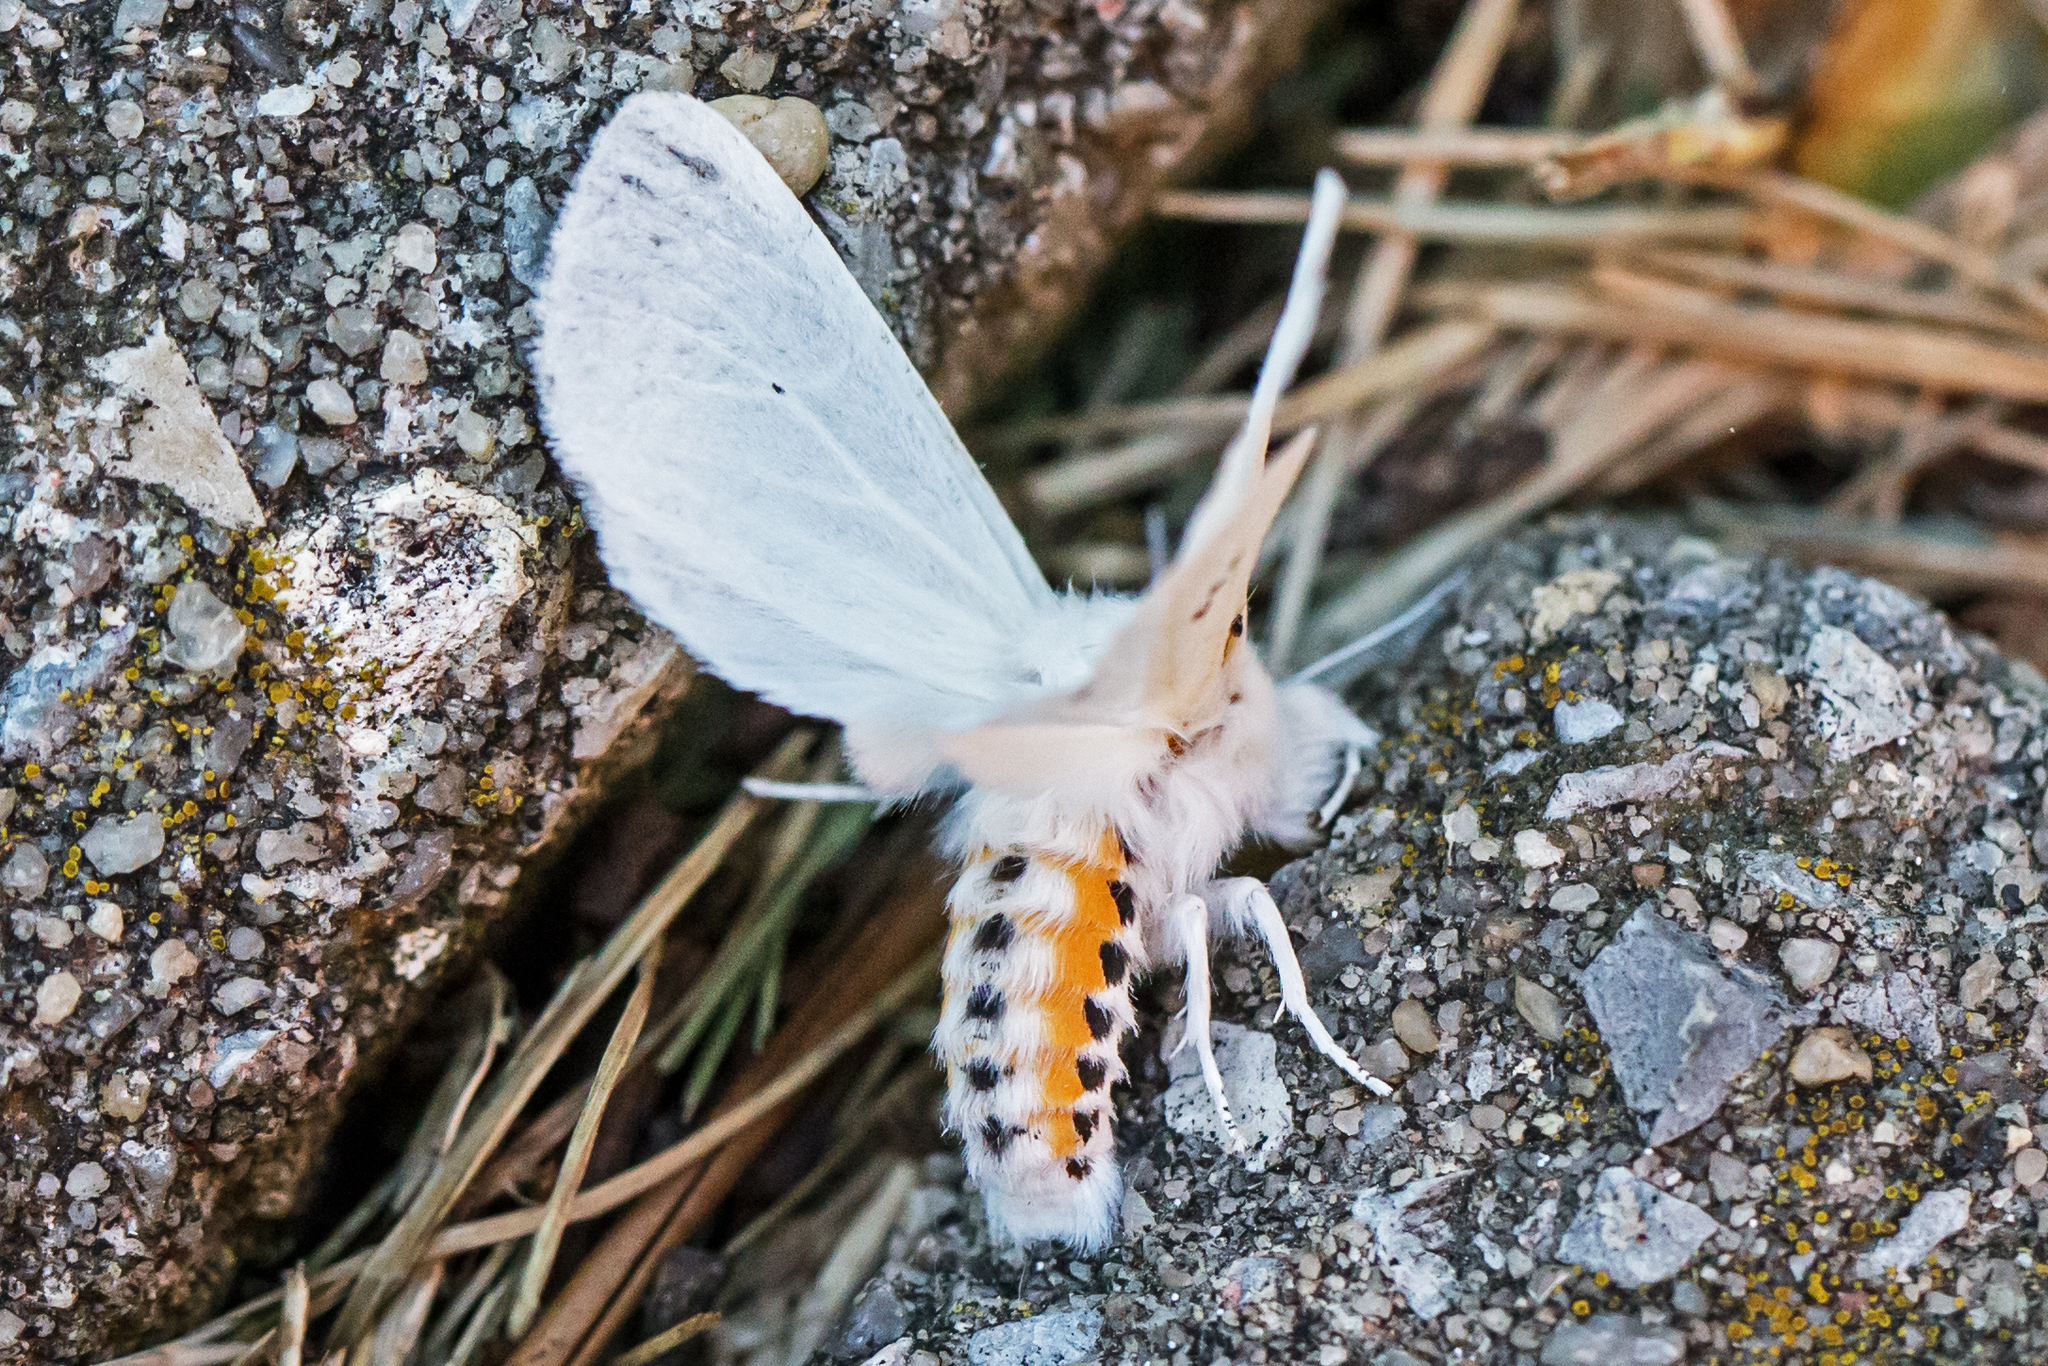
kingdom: Animalia
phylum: Arthropoda
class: Insecta
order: Lepidoptera
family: Erebidae
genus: Spilosoma
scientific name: Spilosoma virginica
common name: Virginia tiger moth
